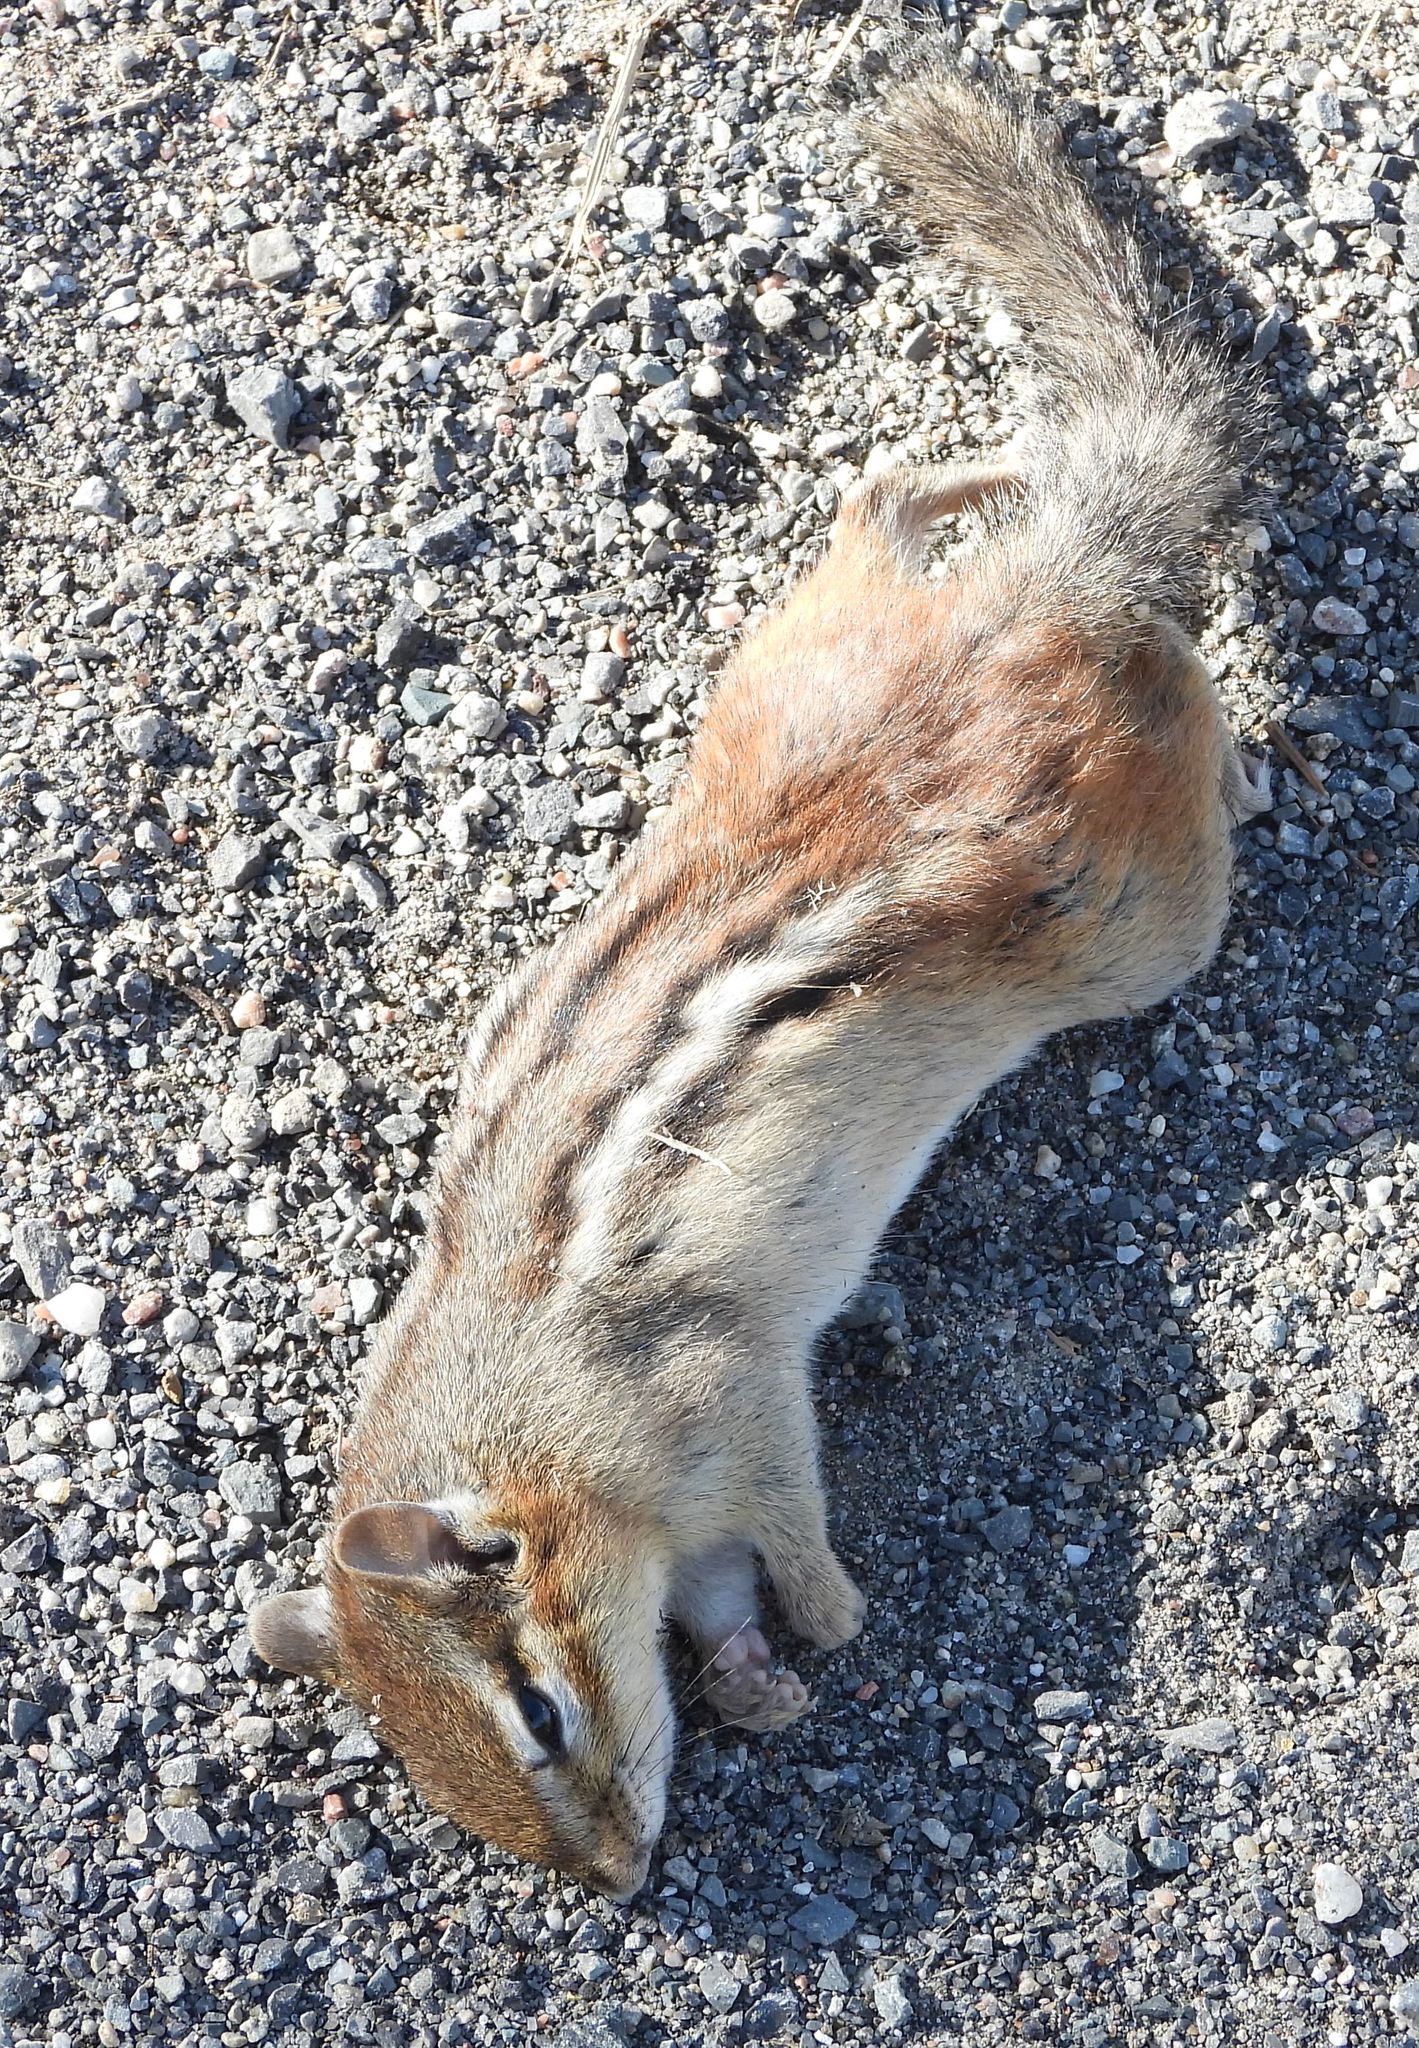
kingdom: Animalia
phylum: Chordata
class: Mammalia
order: Rodentia
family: Sciuridae
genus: Tamias
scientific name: Tamias striatus
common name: Eastern chipmunk
